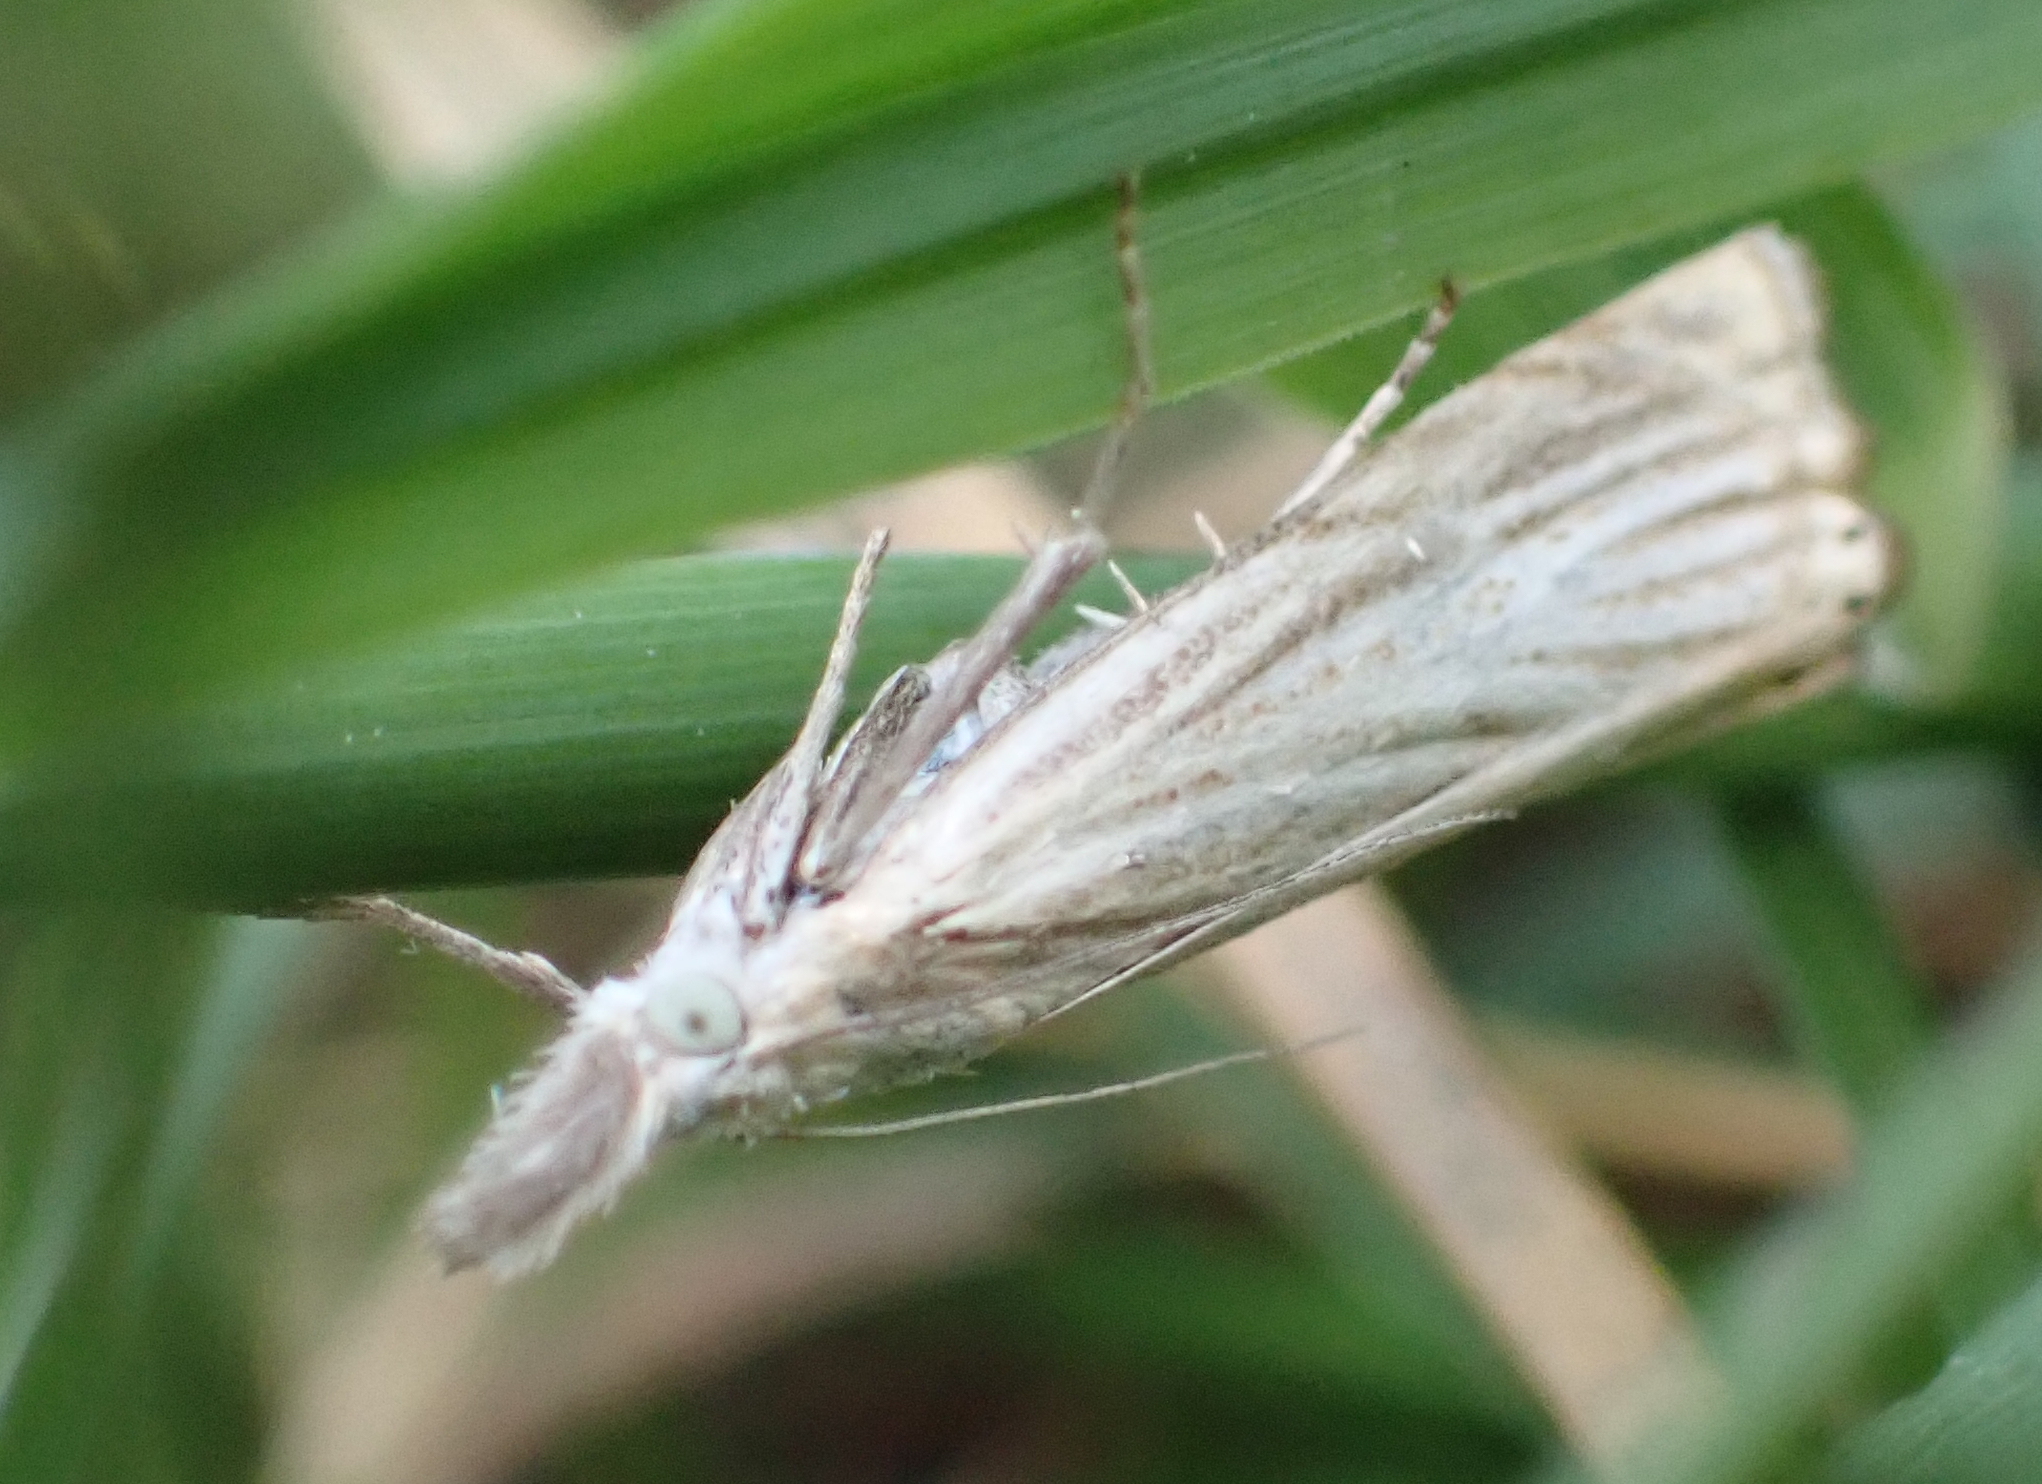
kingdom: Animalia
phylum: Arthropoda
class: Insecta
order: Lepidoptera
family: Crambidae
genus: Chrysoteuchia
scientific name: Chrysoteuchia culmella
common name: Garden grass-veneer
